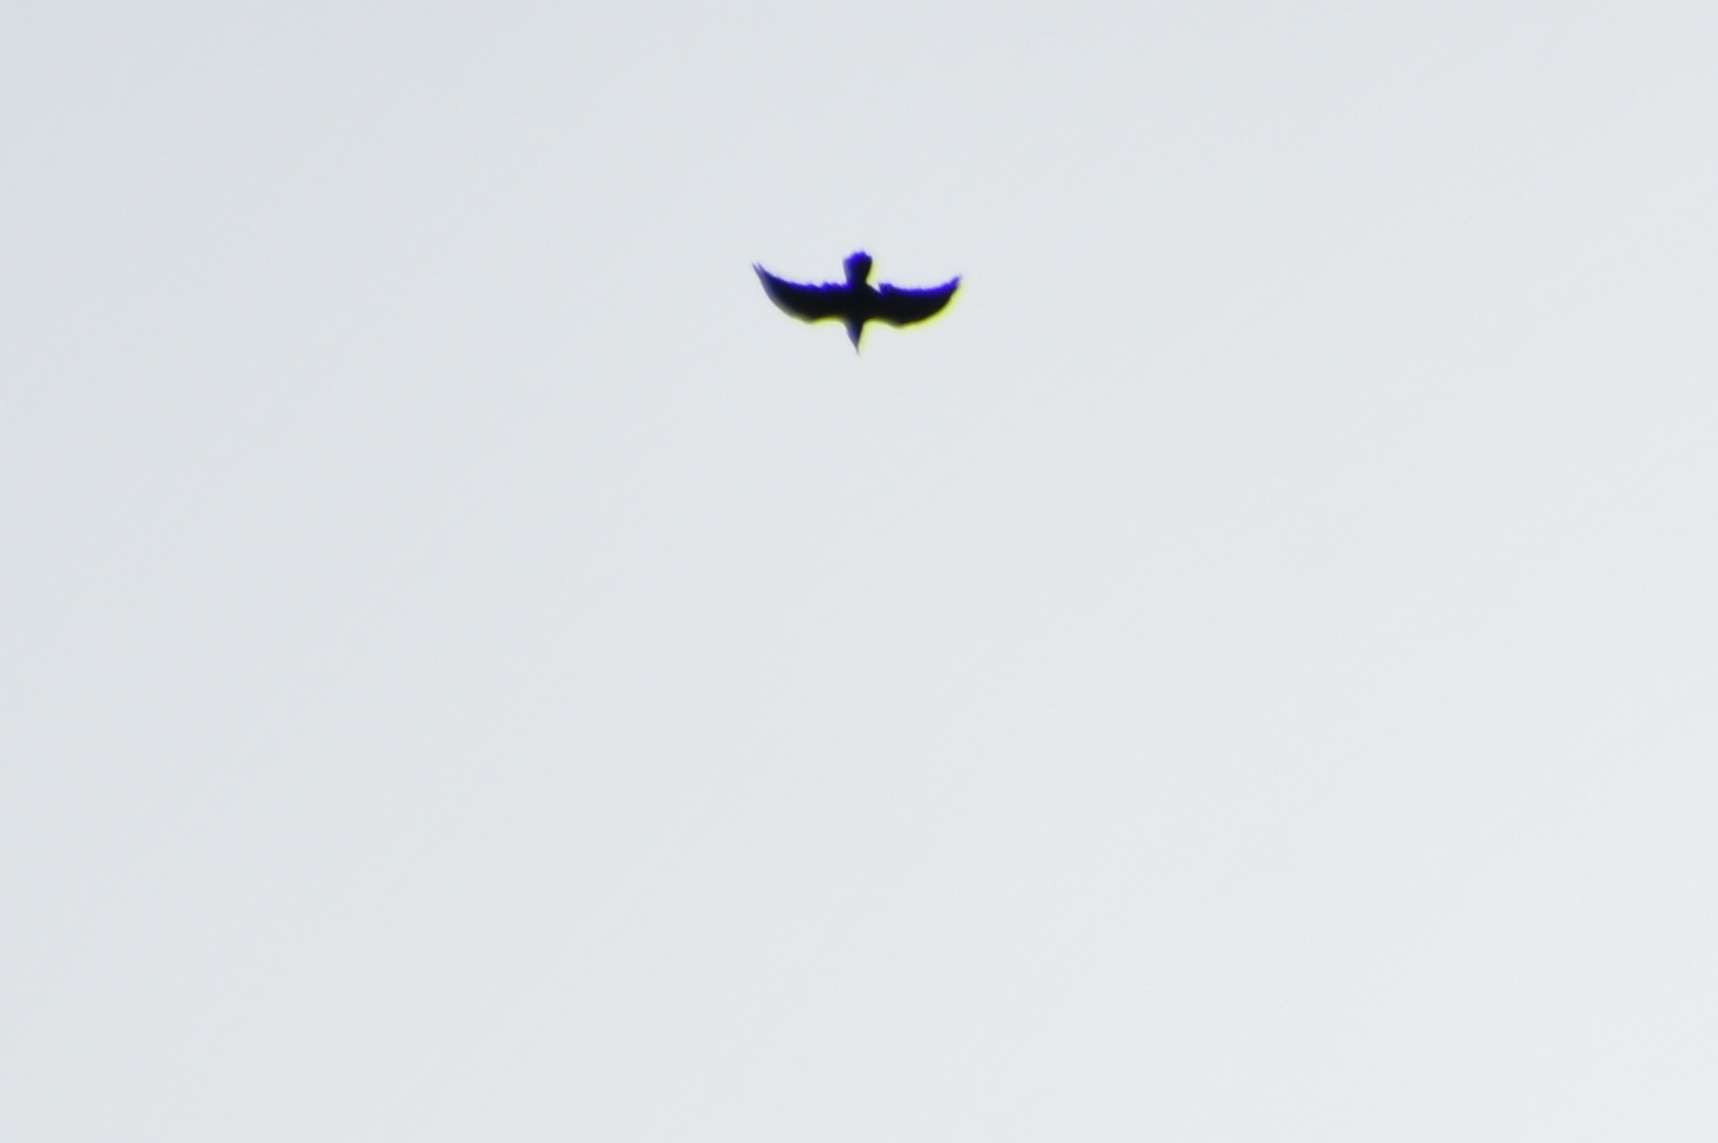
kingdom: Animalia
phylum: Chordata
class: Aves
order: Passeriformes
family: Corvidae
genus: Corvus
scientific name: Corvus corax
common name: Common raven
